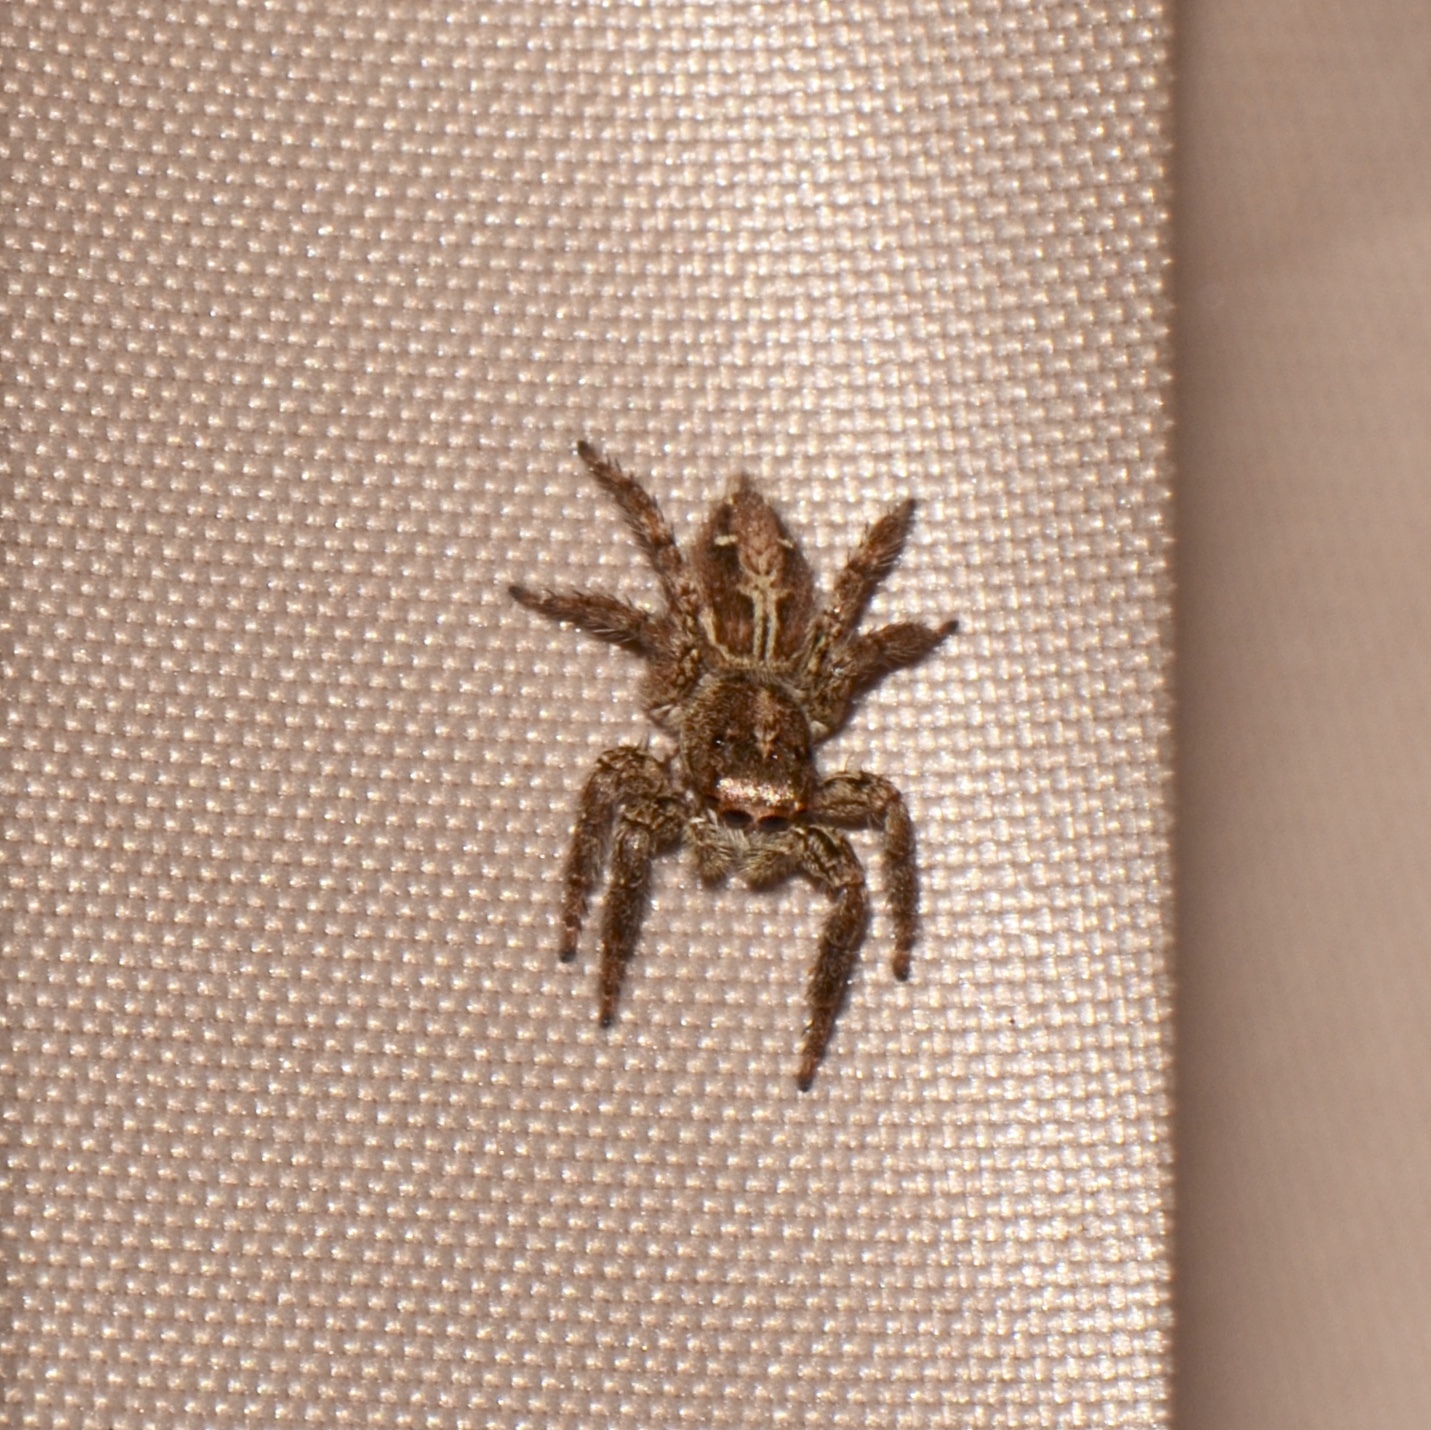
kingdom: Animalia
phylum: Arthropoda
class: Arachnida
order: Araneae
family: Salticidae
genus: Plexippus
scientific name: Plexippus paykulli
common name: Pantropical jumper
